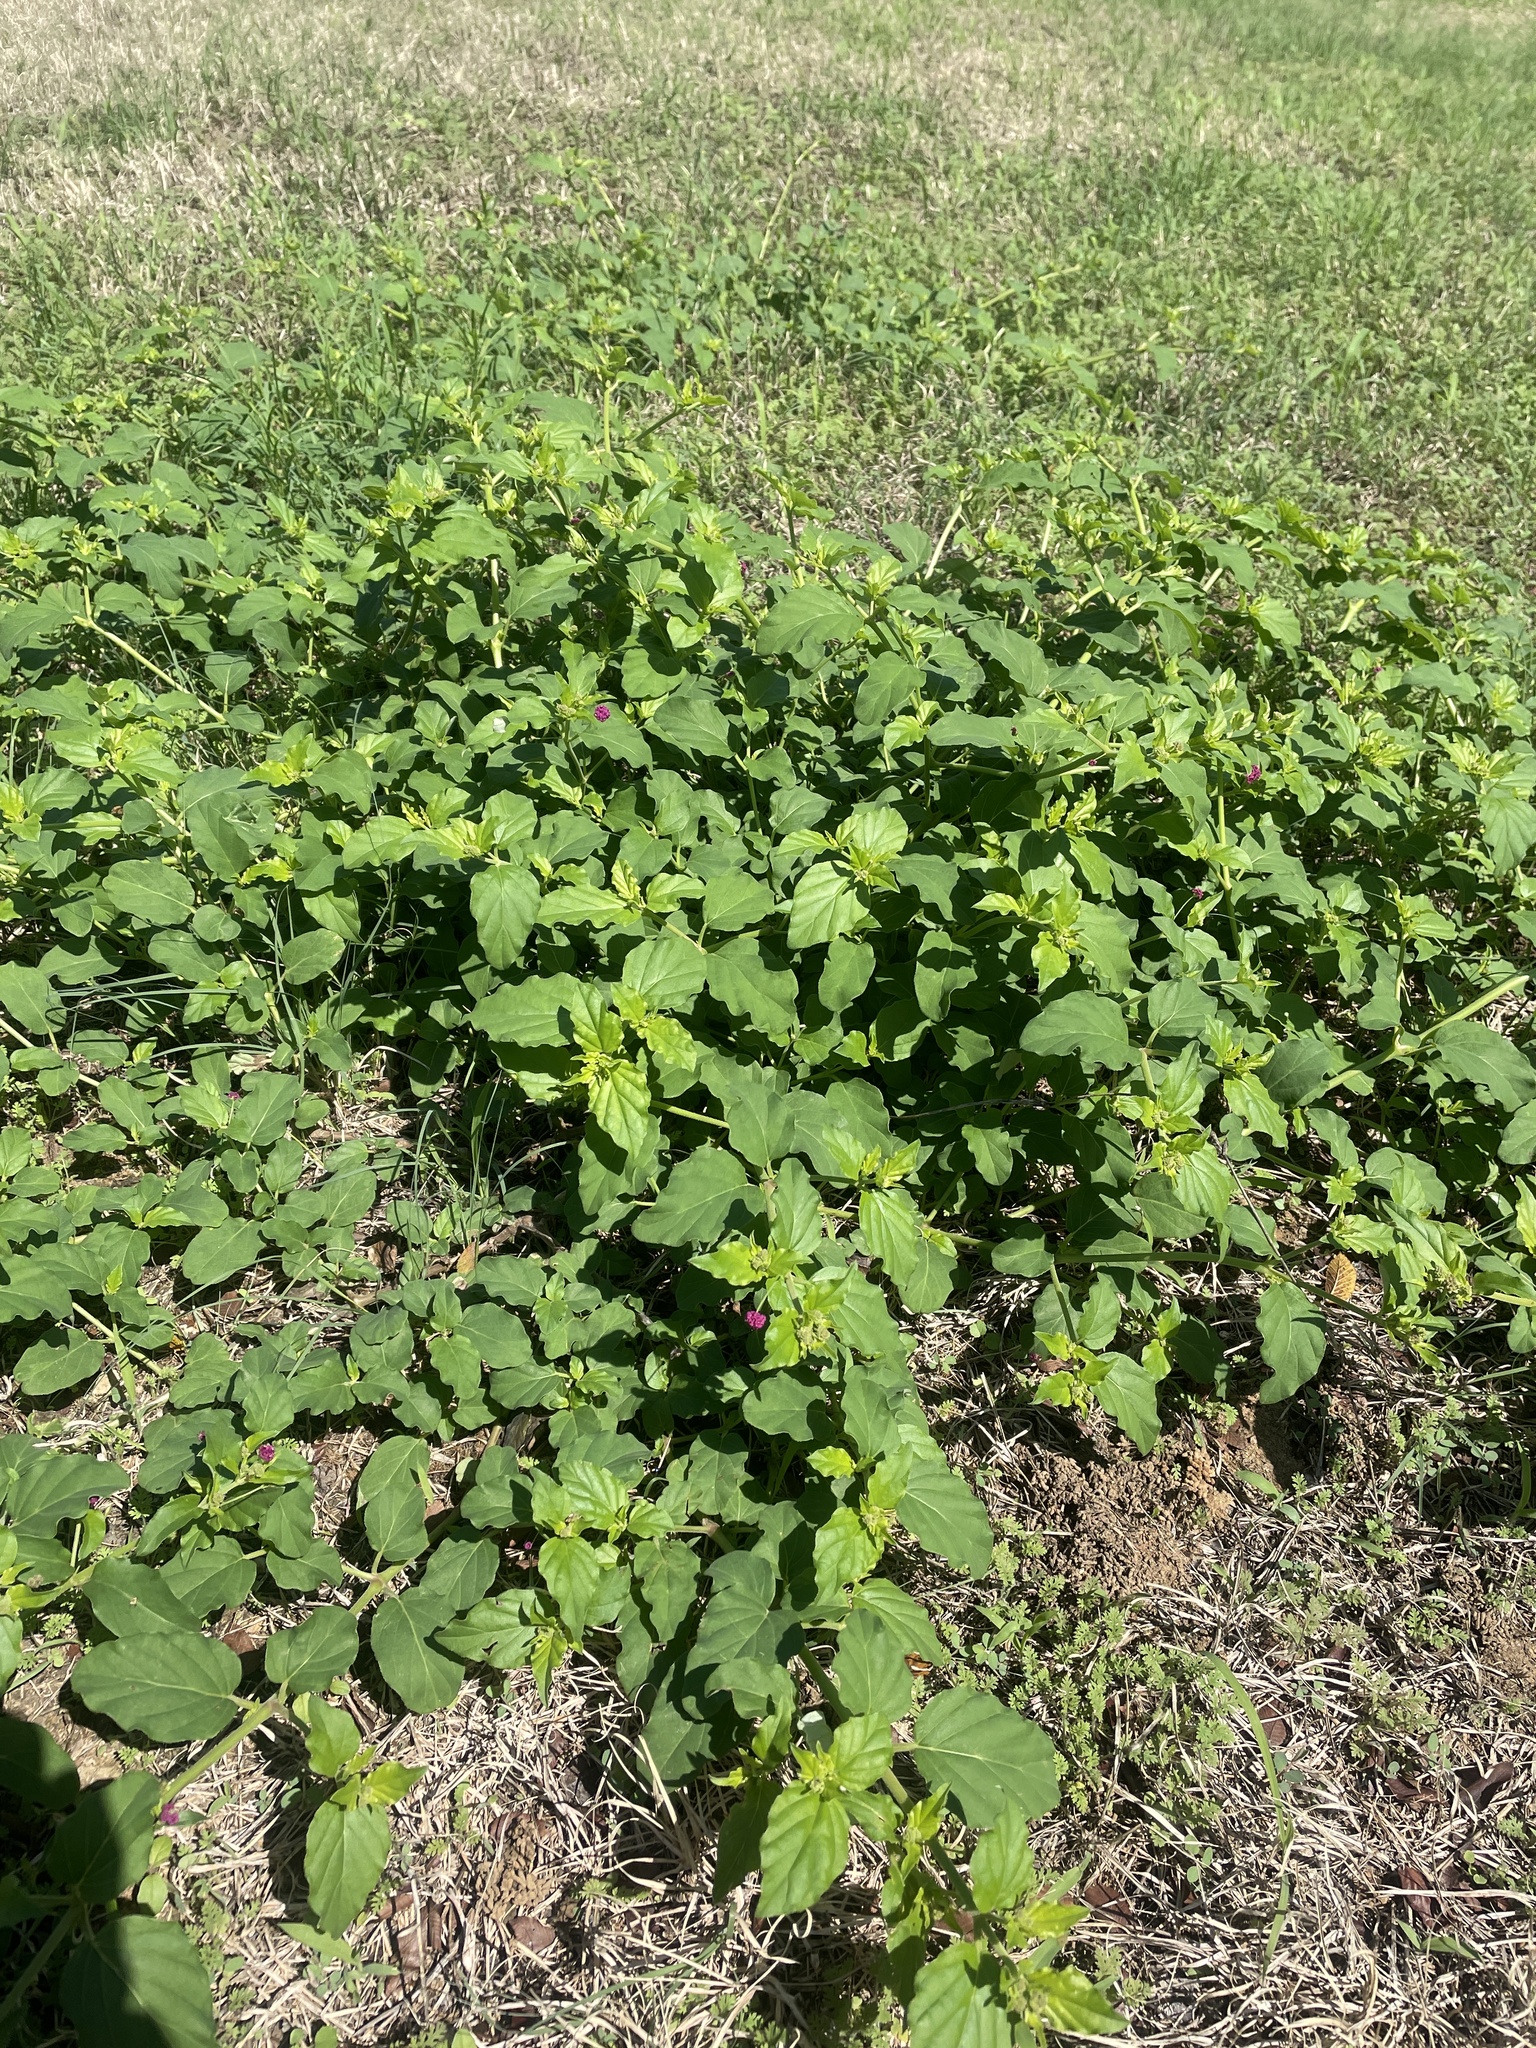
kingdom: Plantae
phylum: Tracheophyta
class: Magnoliopsida
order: Caryophyllales
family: Nyctaginaceae
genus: Boerhavia
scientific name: Boerhavia coccinea
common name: Scarlet spiderling
